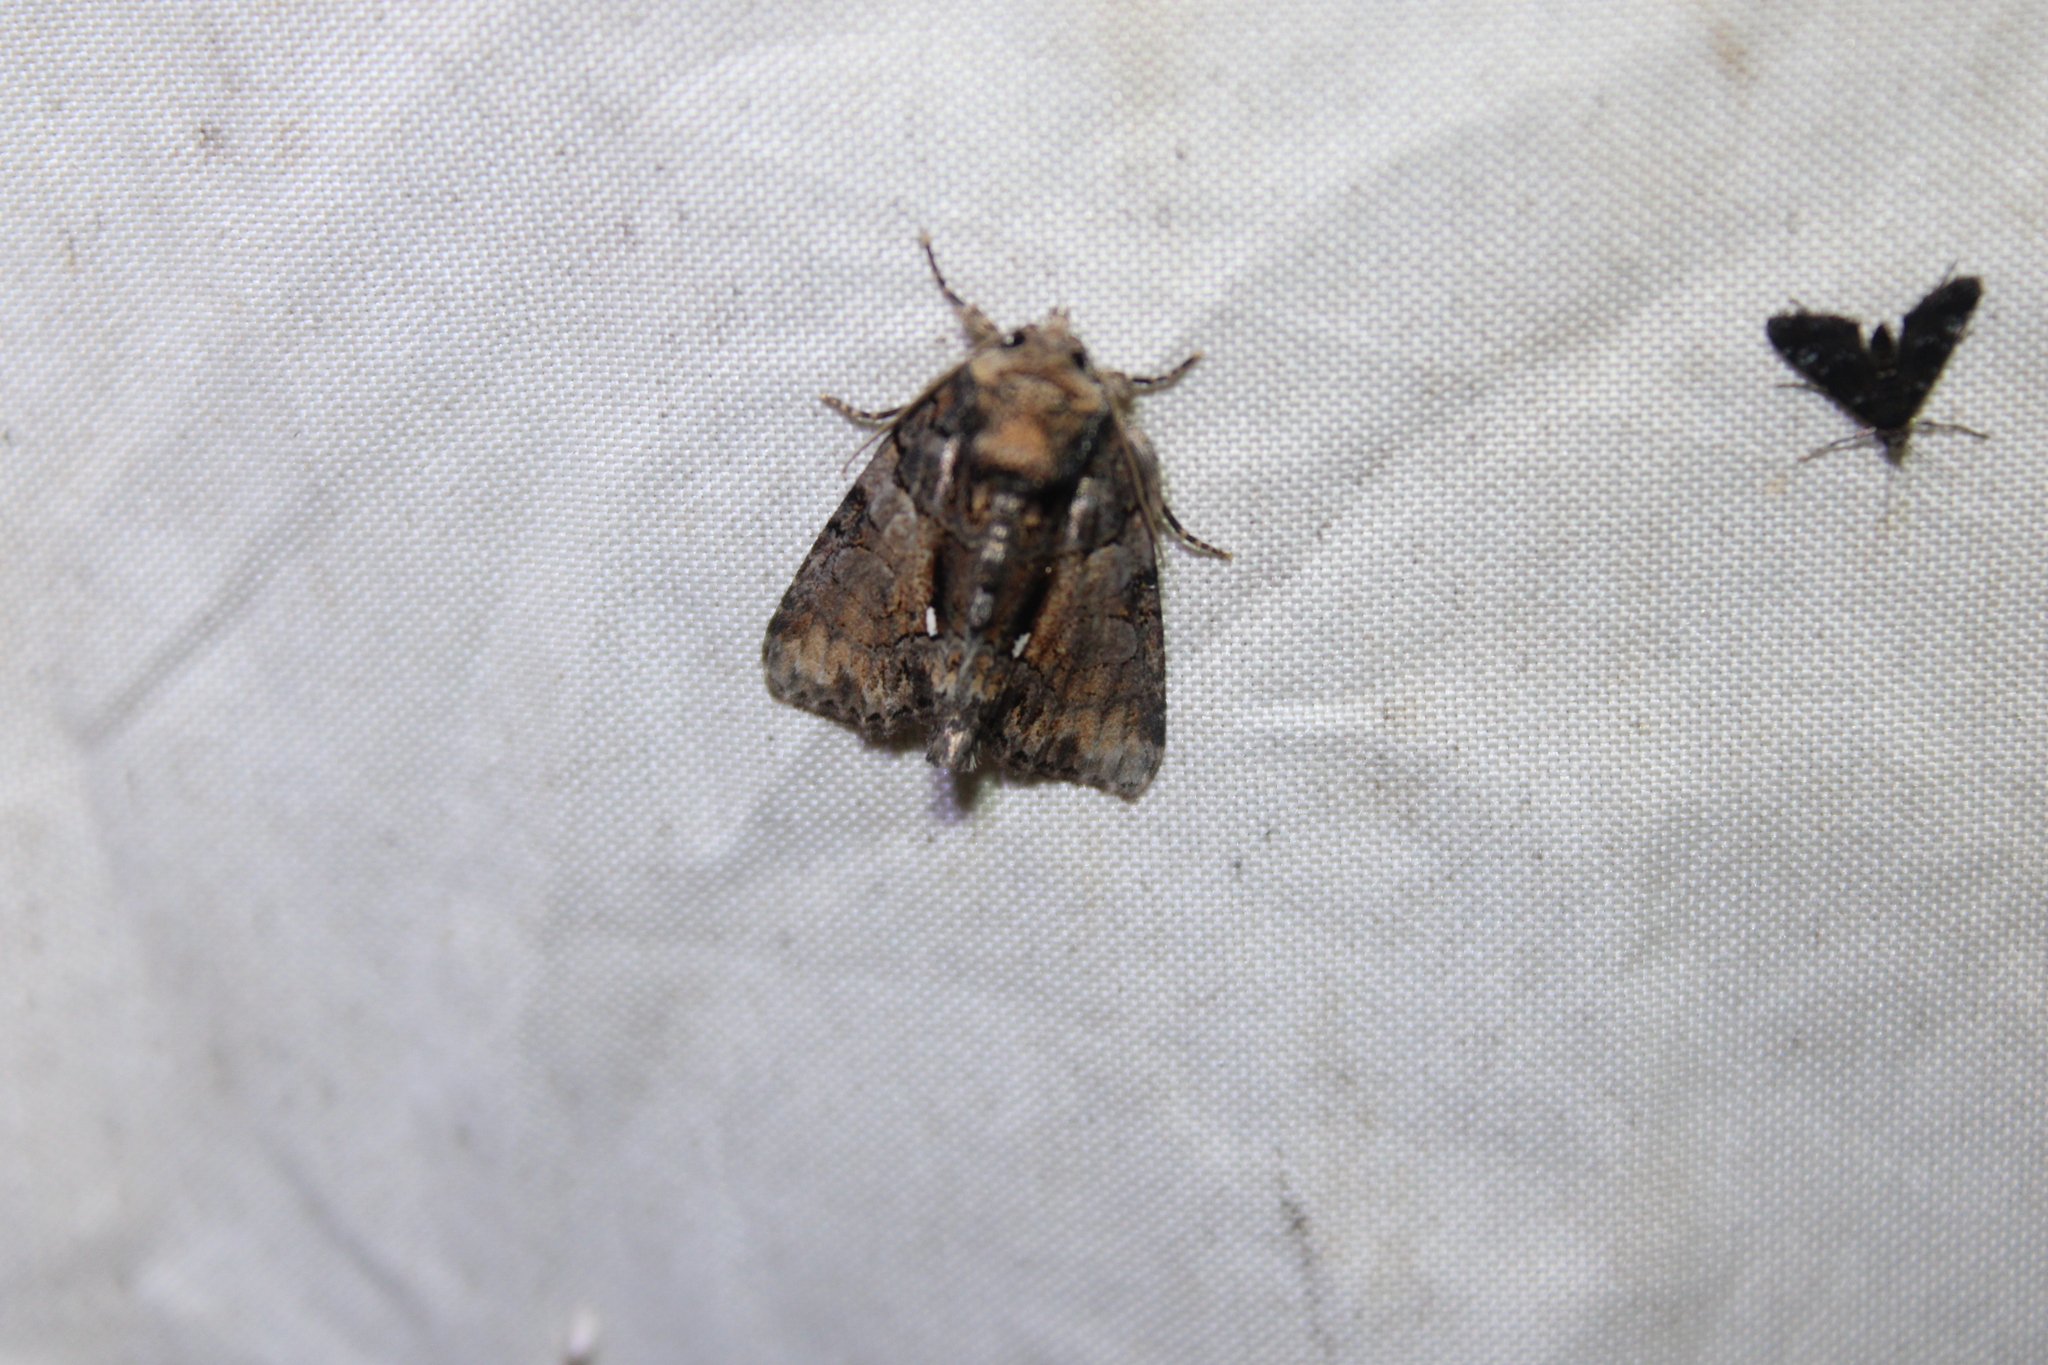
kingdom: Animalia
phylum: Arthropoda
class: Insecta
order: Lepidoptera
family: Noctuidae
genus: Chytonix
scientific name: Chytonix palliatricula
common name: Cloaked marvel
